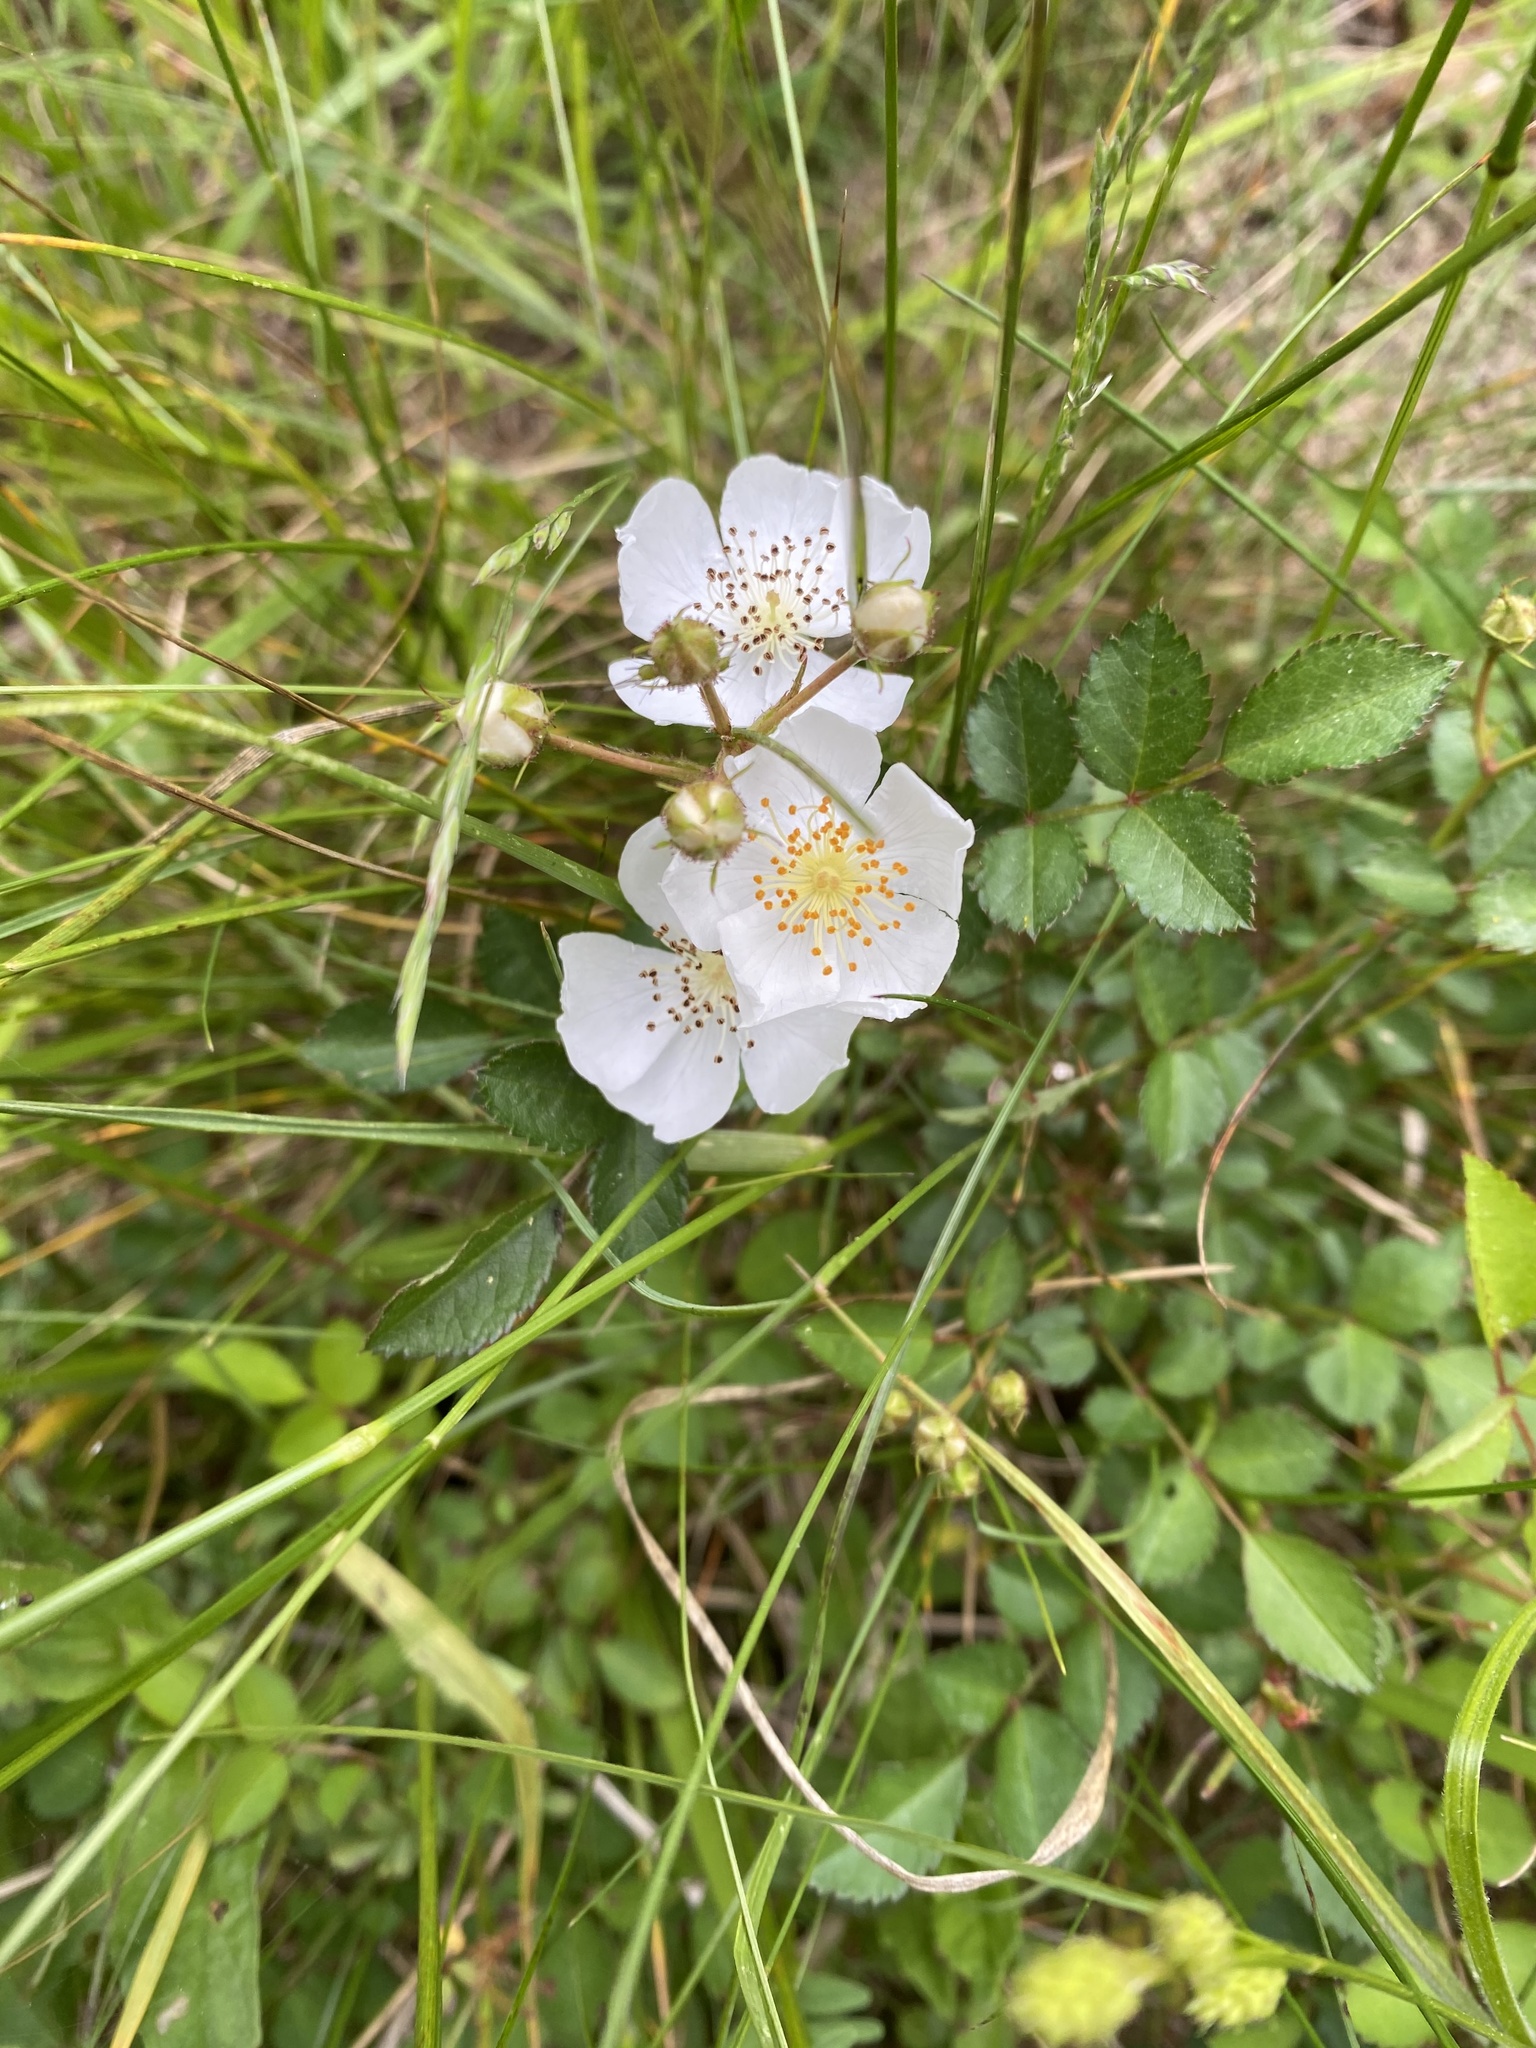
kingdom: Plantae
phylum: Tracheophyta
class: Magnoliopsida
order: Rosales
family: Rosaceae
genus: Rosa
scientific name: Rosa multiflora
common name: Multiflora rose
